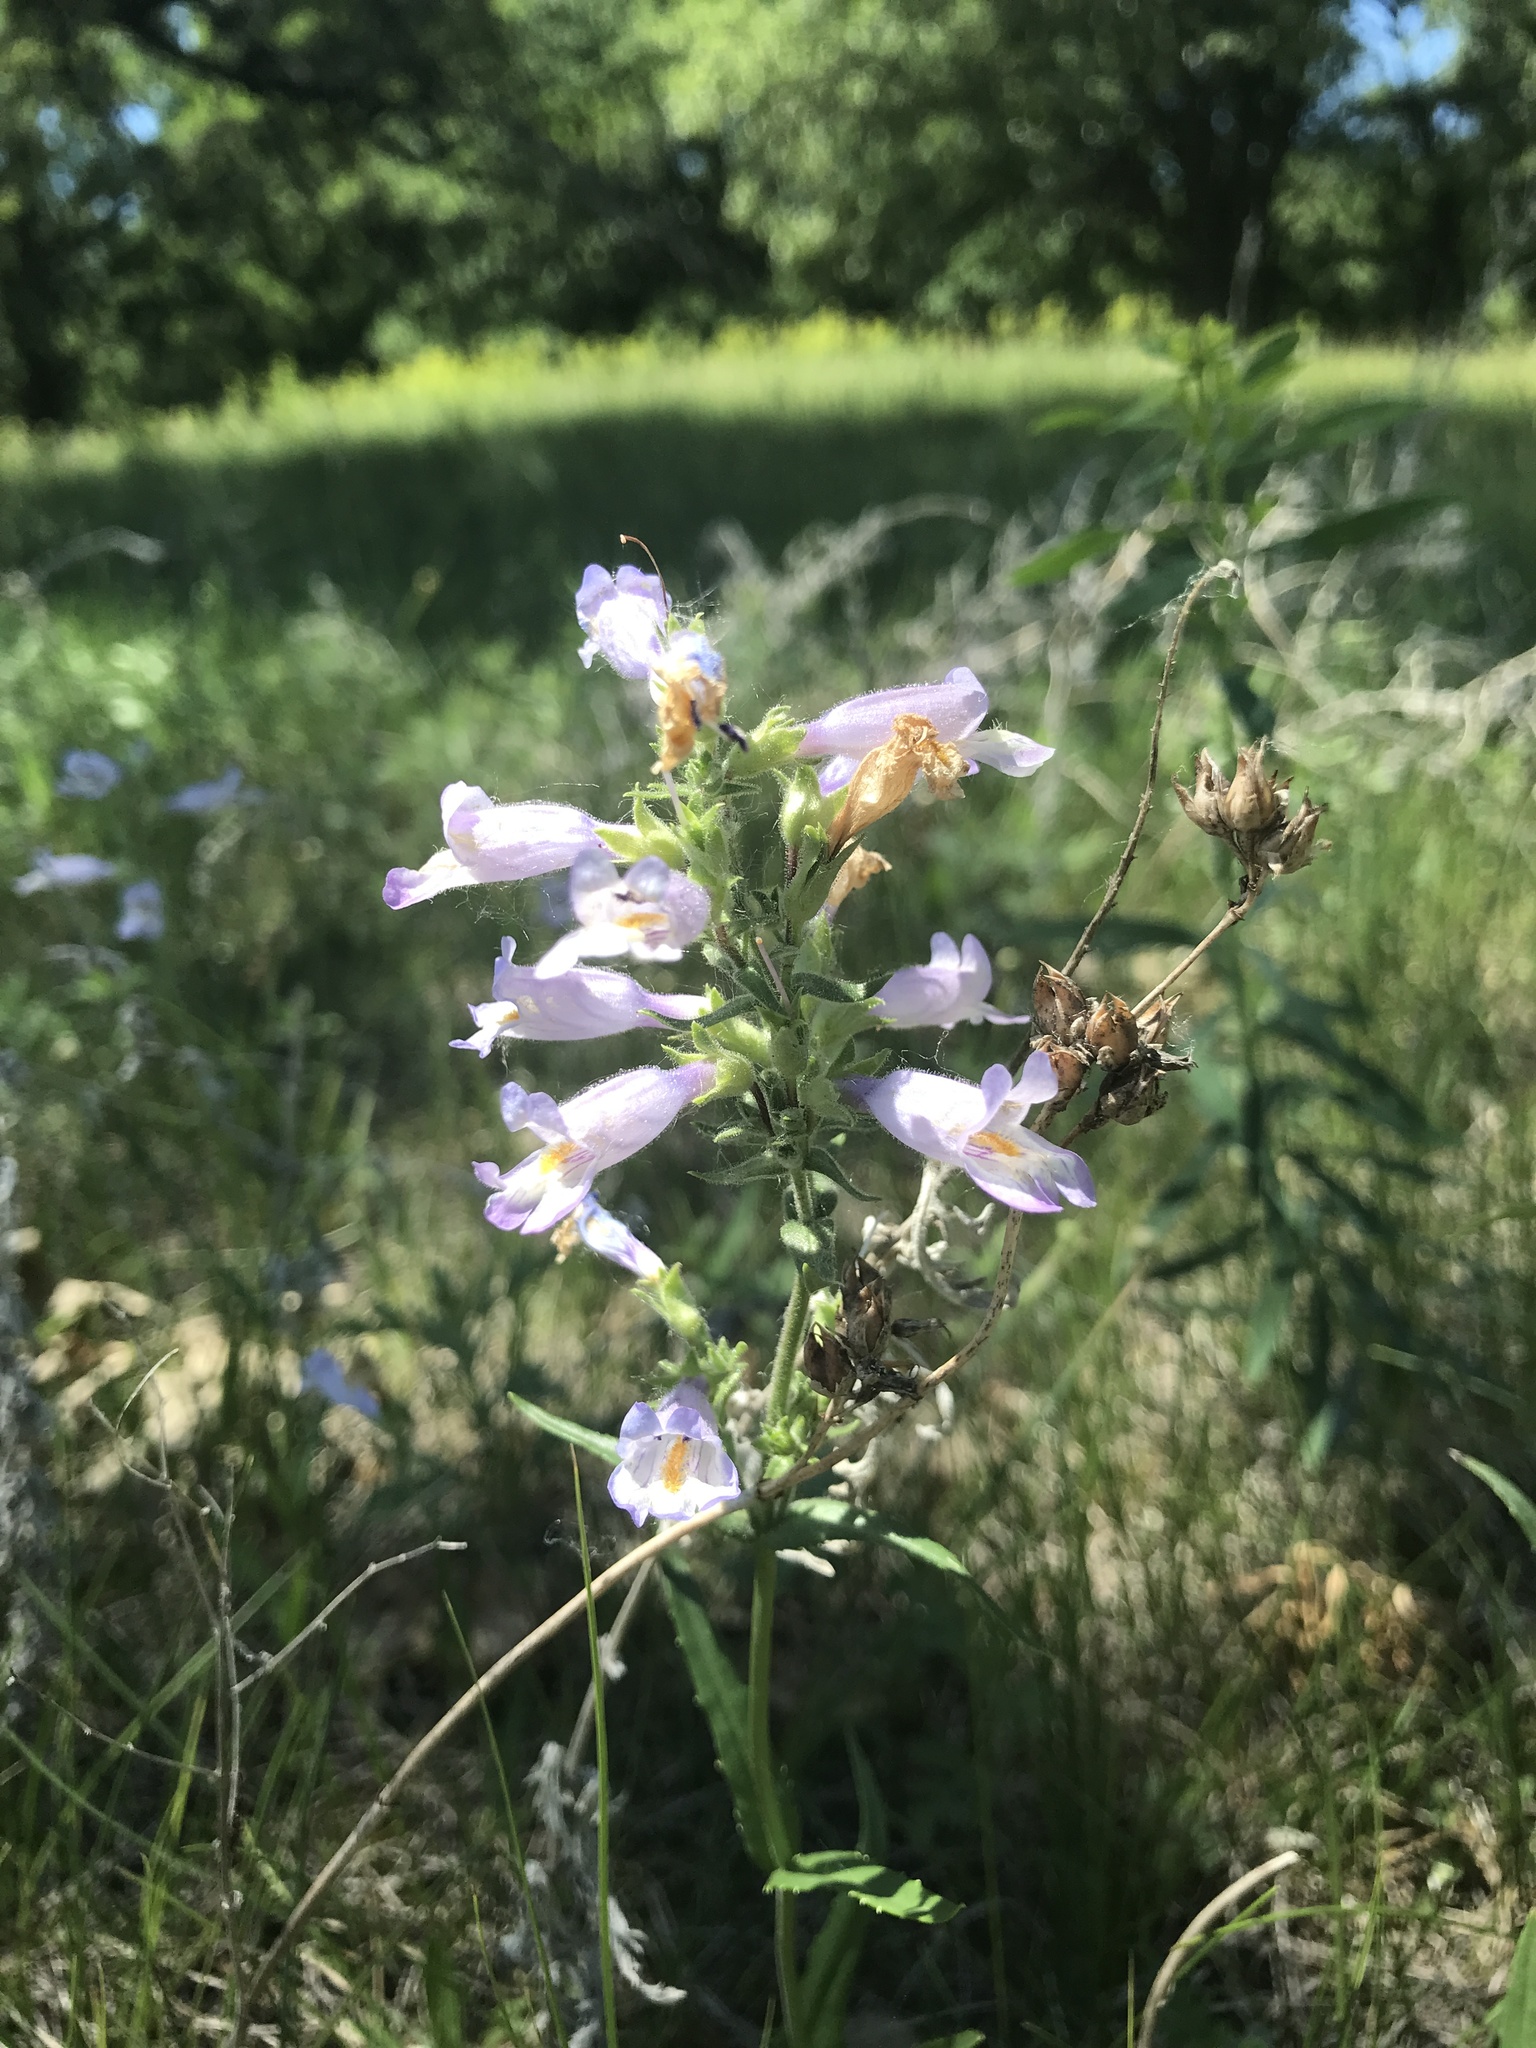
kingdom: Plantae
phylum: Tracheophyta
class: Magnoliopsida
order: Lamiales
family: Plantaginaceae
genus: Penstemon
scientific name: Penstemon gracilis
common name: Slender beardtongue
